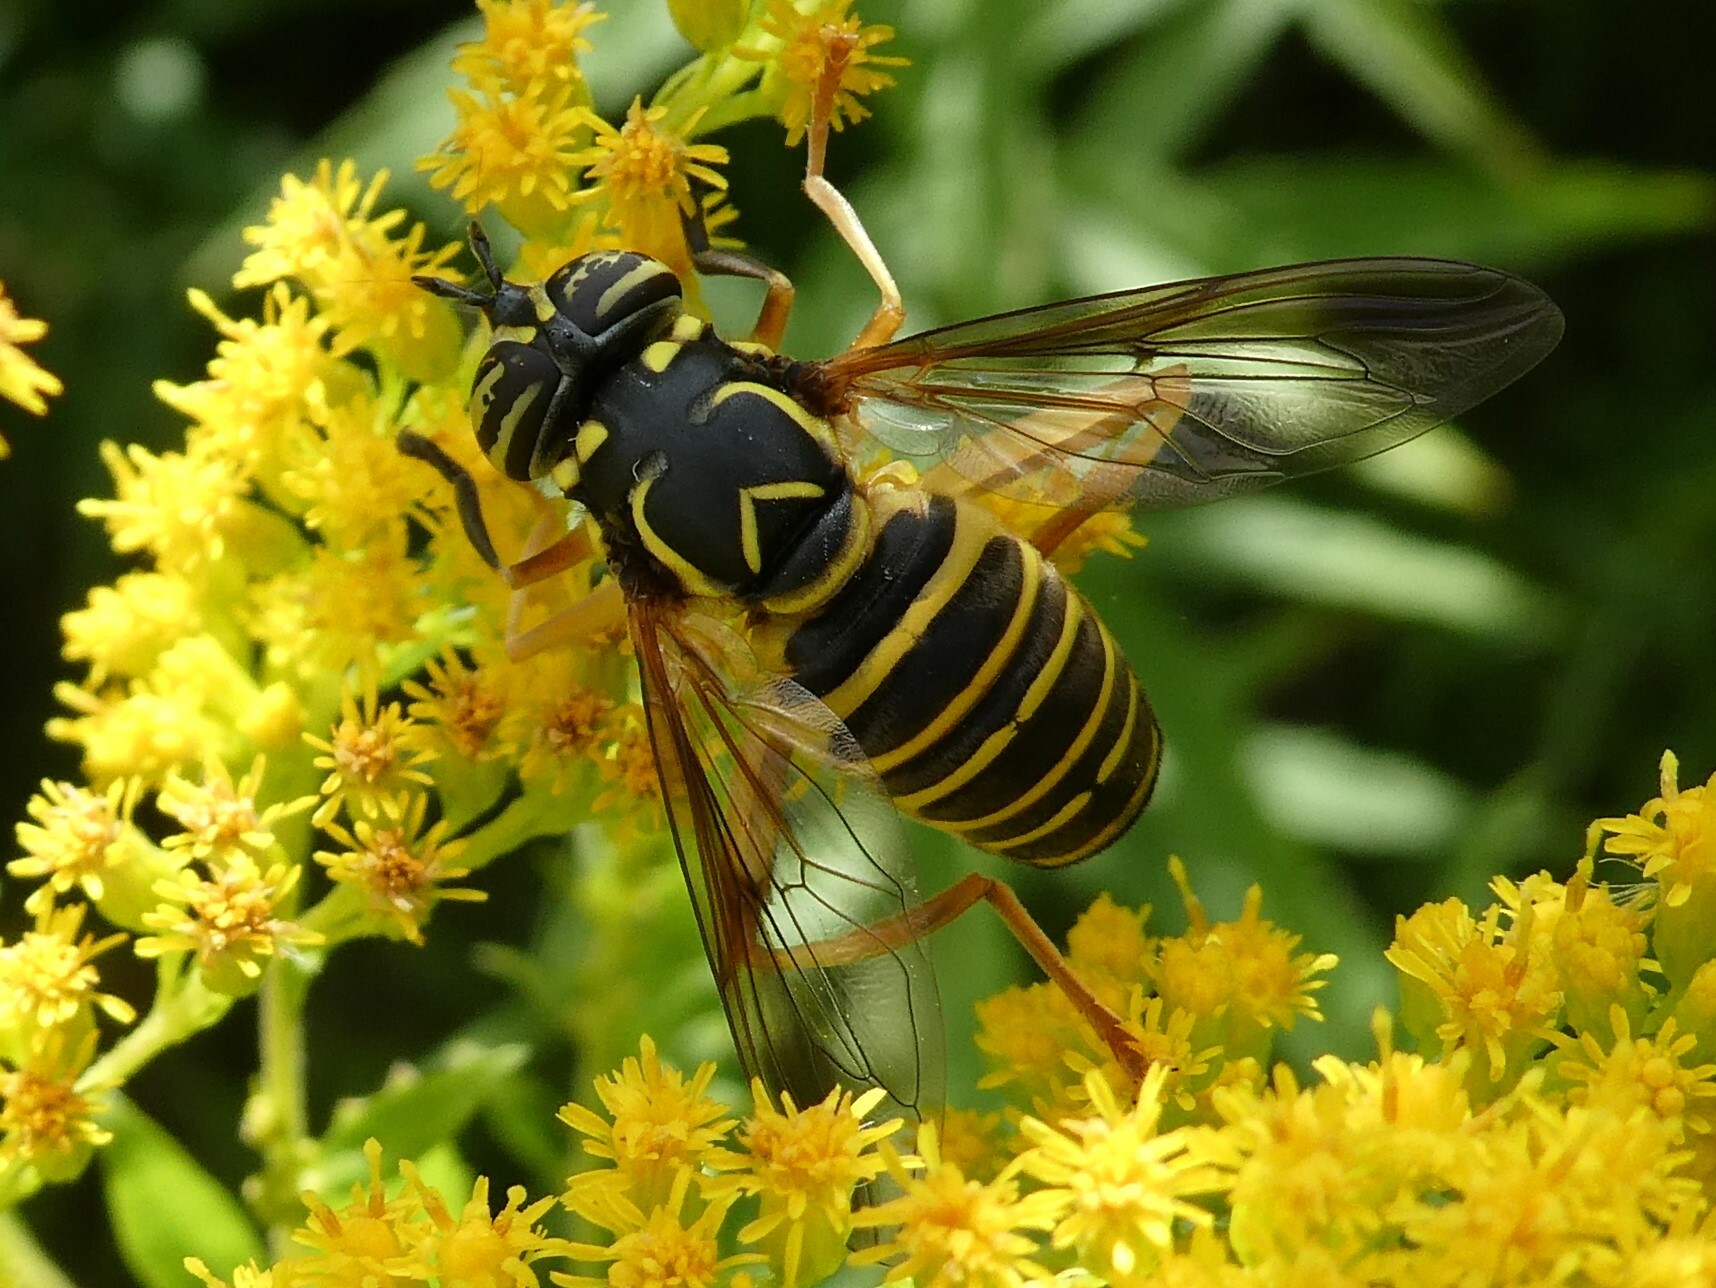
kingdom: Animalia
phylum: Arthropoda
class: Insecta
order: Diptera
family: Syrphidae
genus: Spilomyia
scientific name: Spilomyia longicornis
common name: Eastern hornet fly
